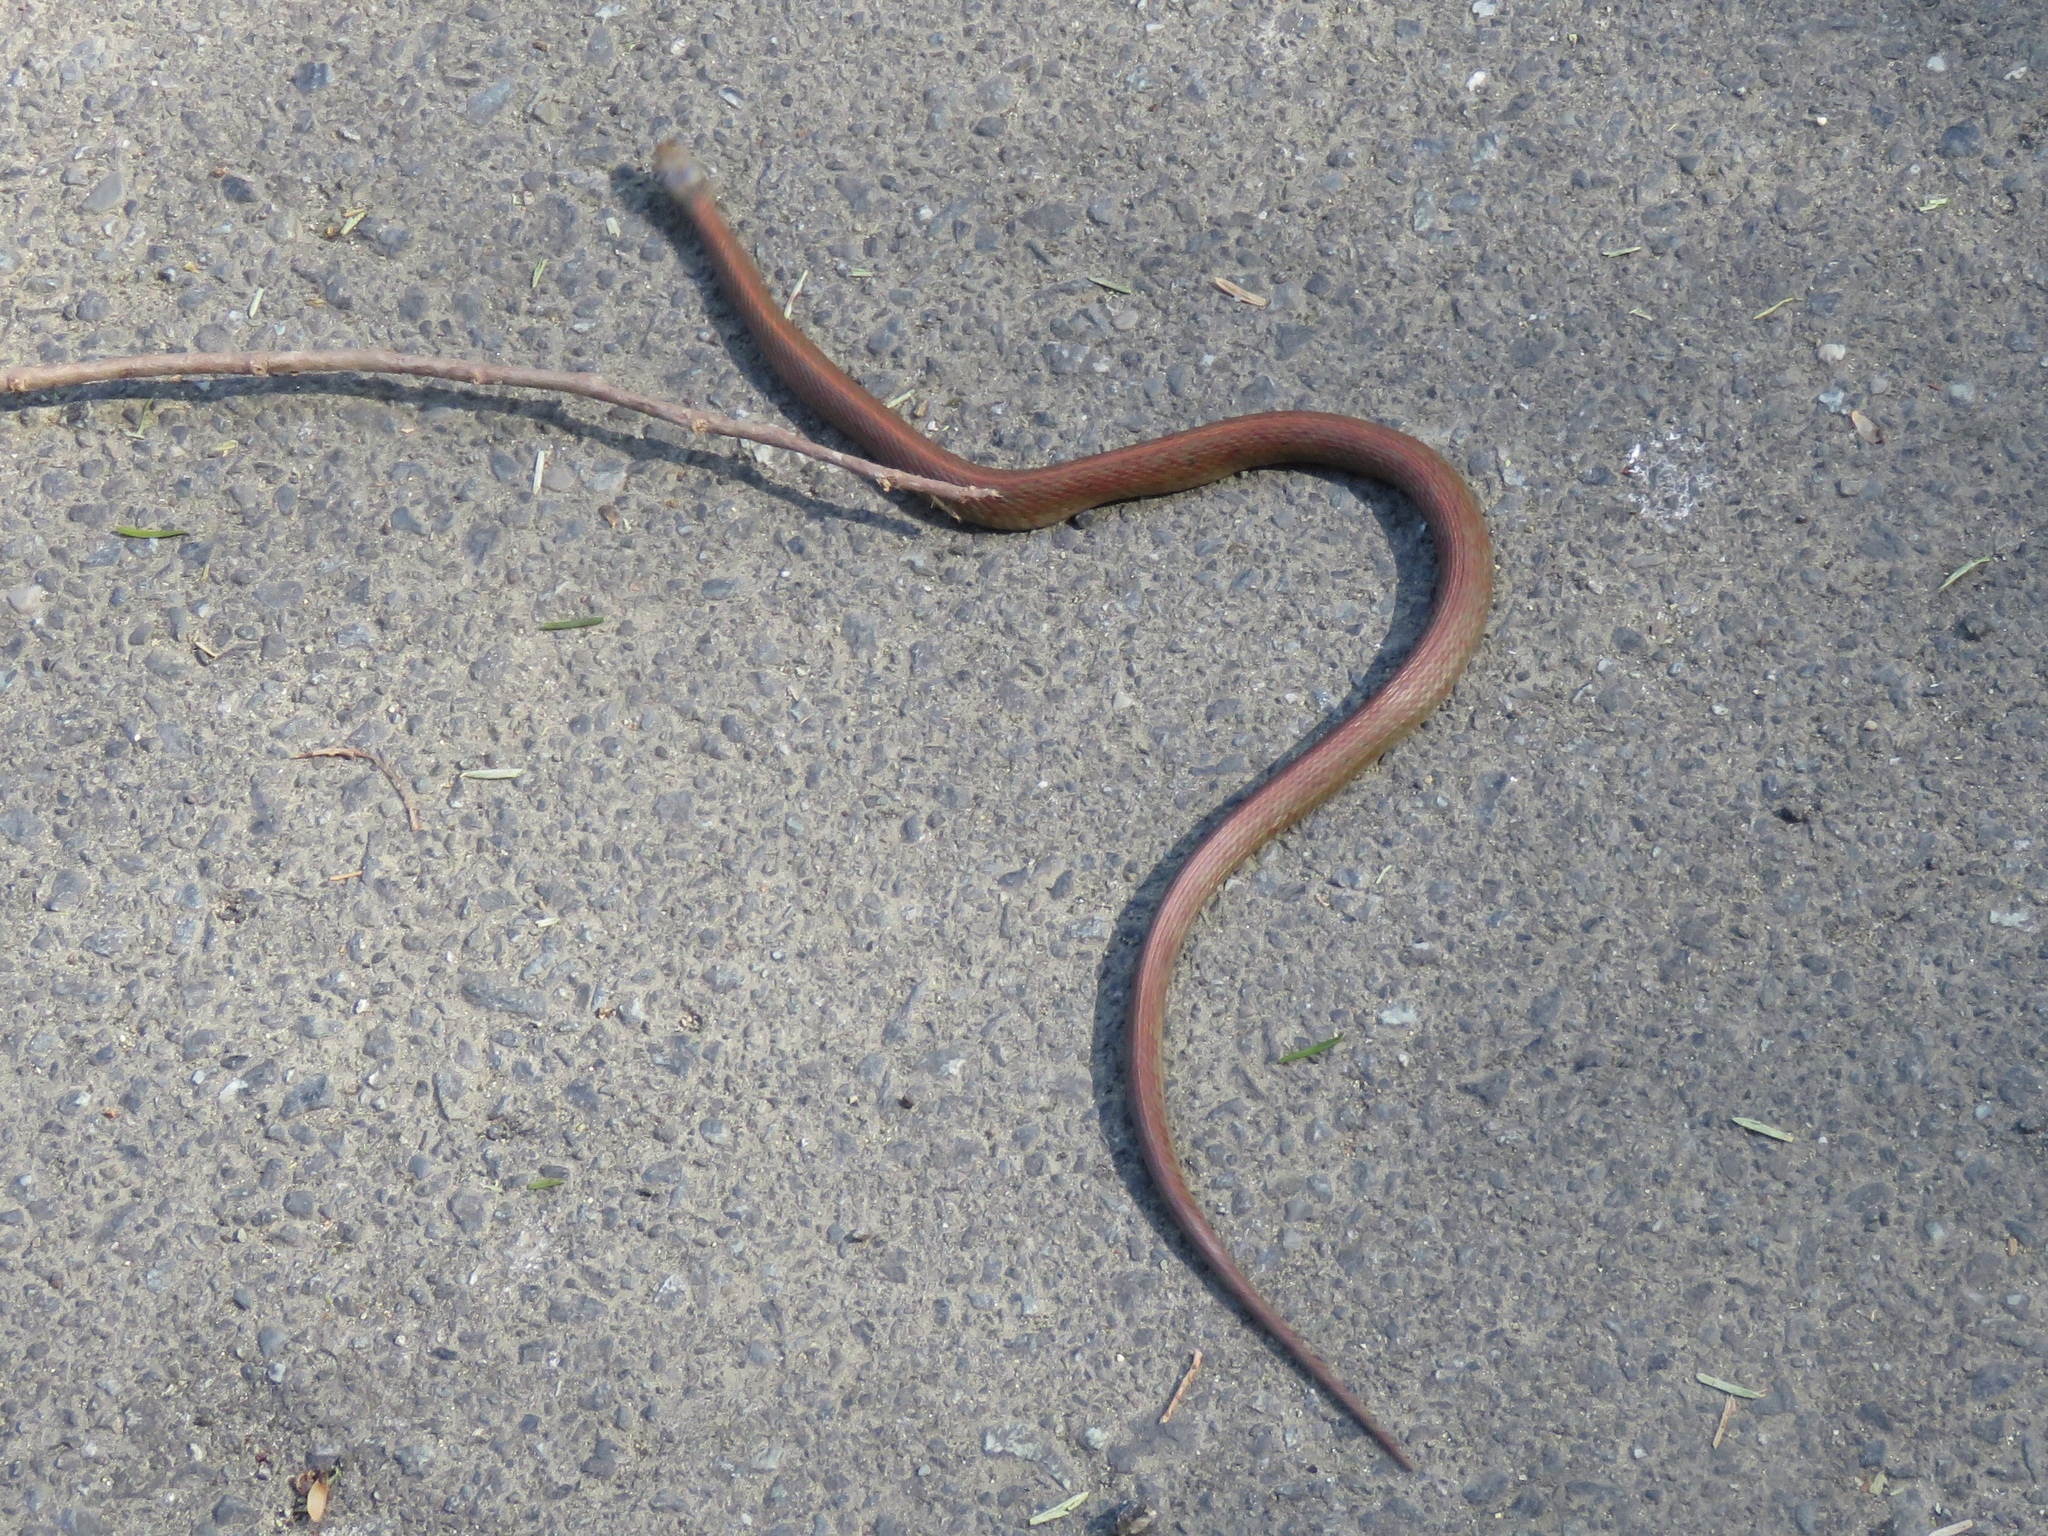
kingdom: Animalia
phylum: Chordata
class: Squamata
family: Colubridae
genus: Thamnophis
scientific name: Thamnophis ordinoides
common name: Northwestern garter snake
